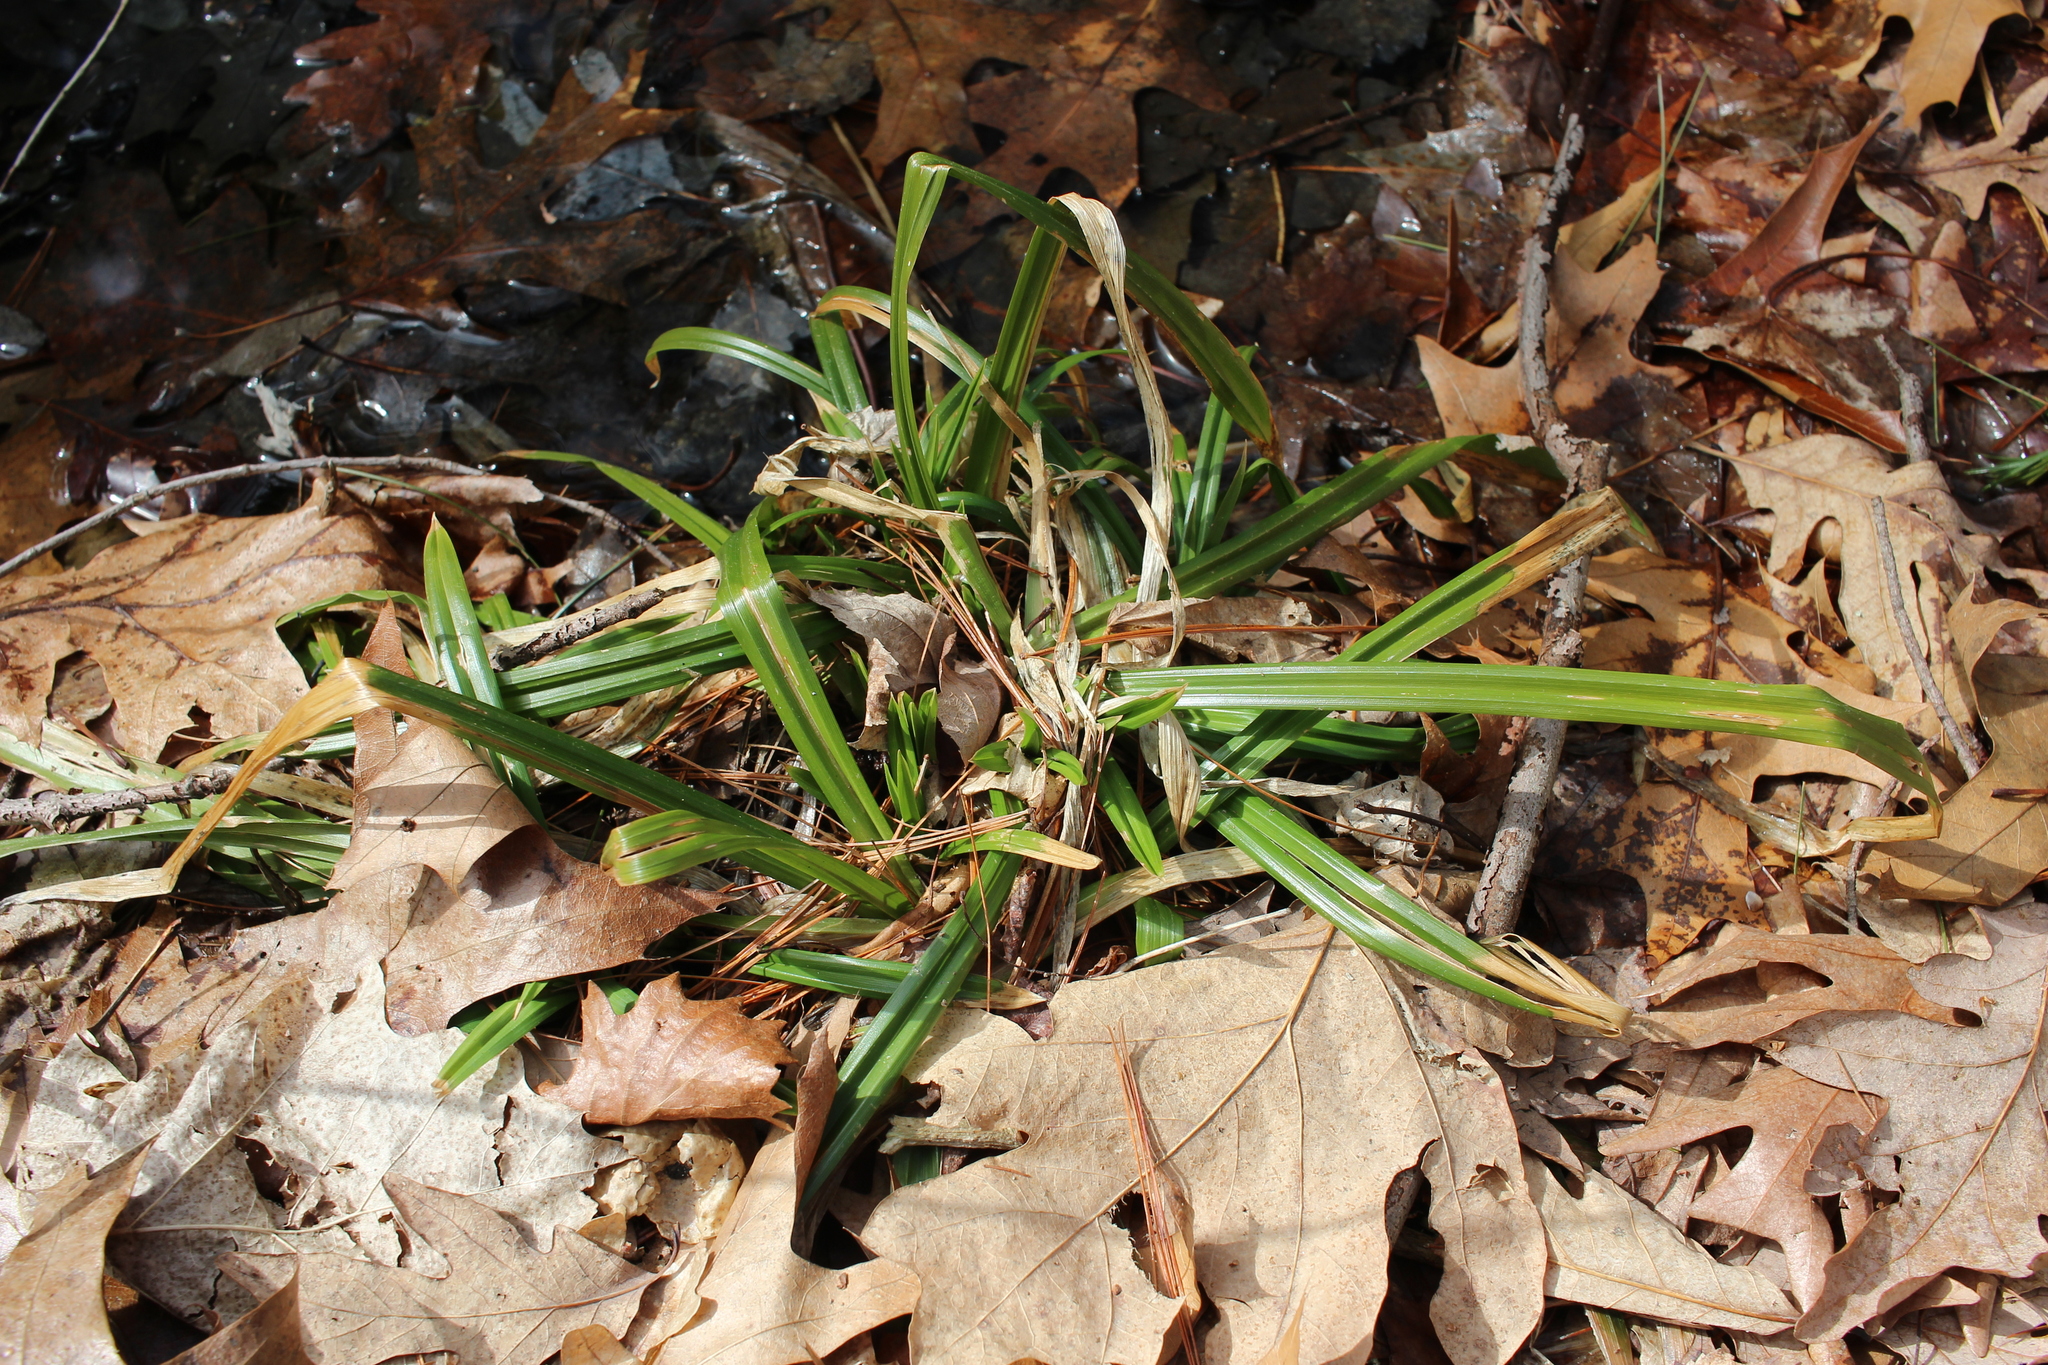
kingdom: Plantae
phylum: Tracheophyta
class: Liliopsida
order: Poales
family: Cyperaceae
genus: Carex
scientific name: Carex
